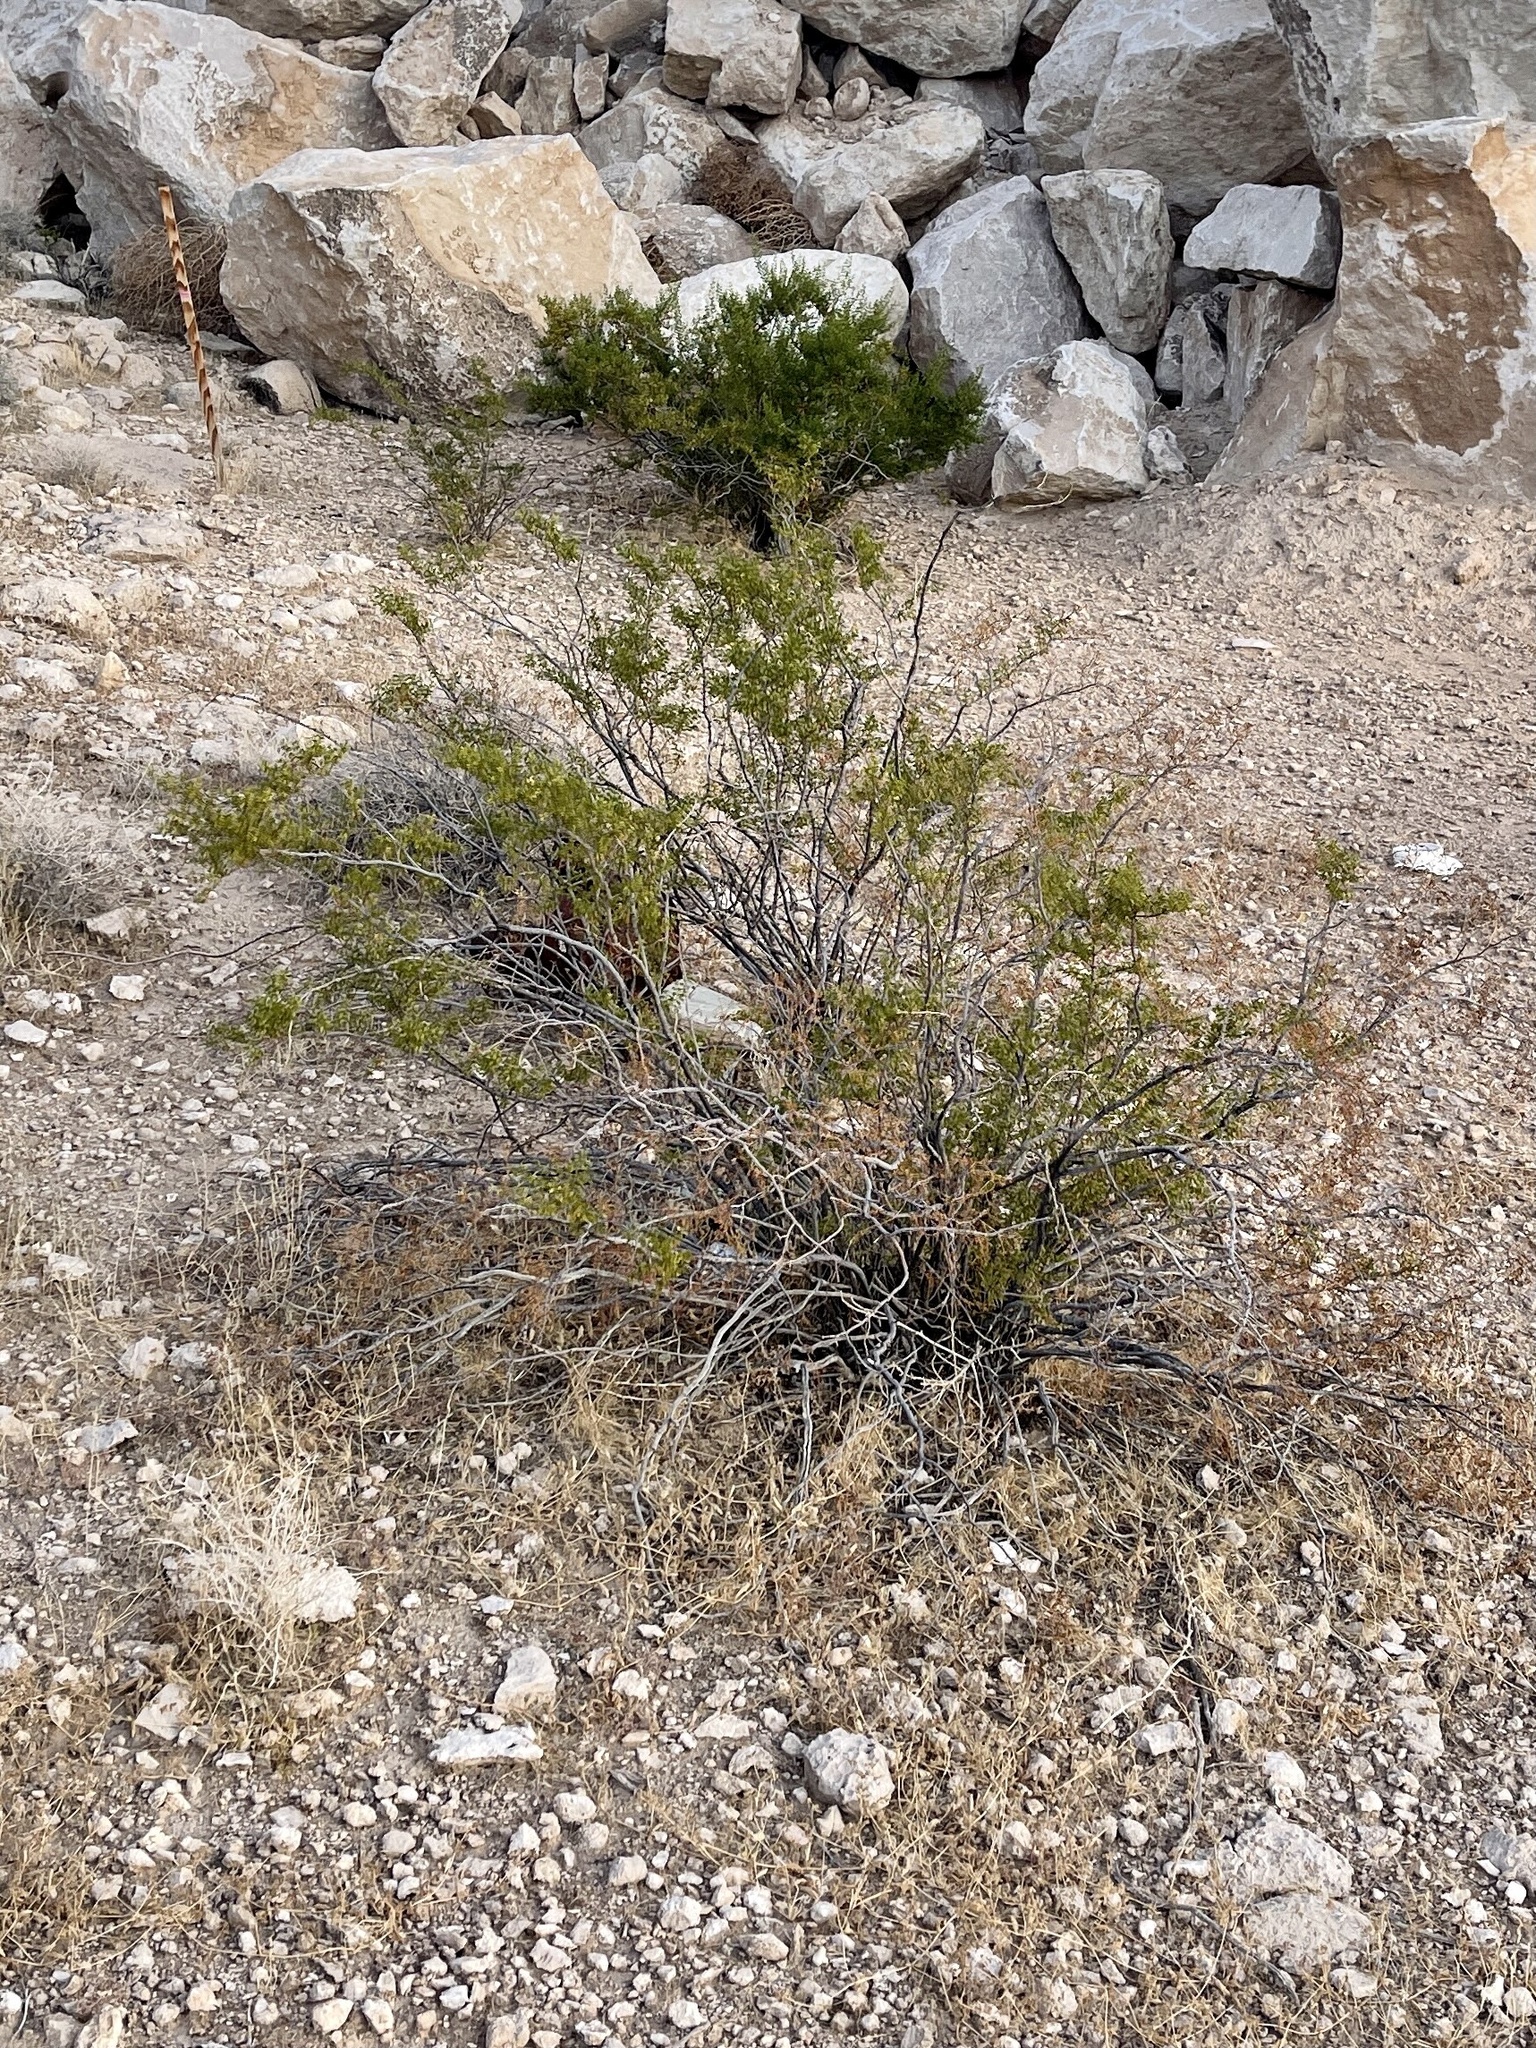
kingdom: Plantae
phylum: Tracheophyta
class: Magnoliopsida
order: Zygophyllales
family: Zygophyllaceae
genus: Larrea
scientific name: Larrea tridentata
